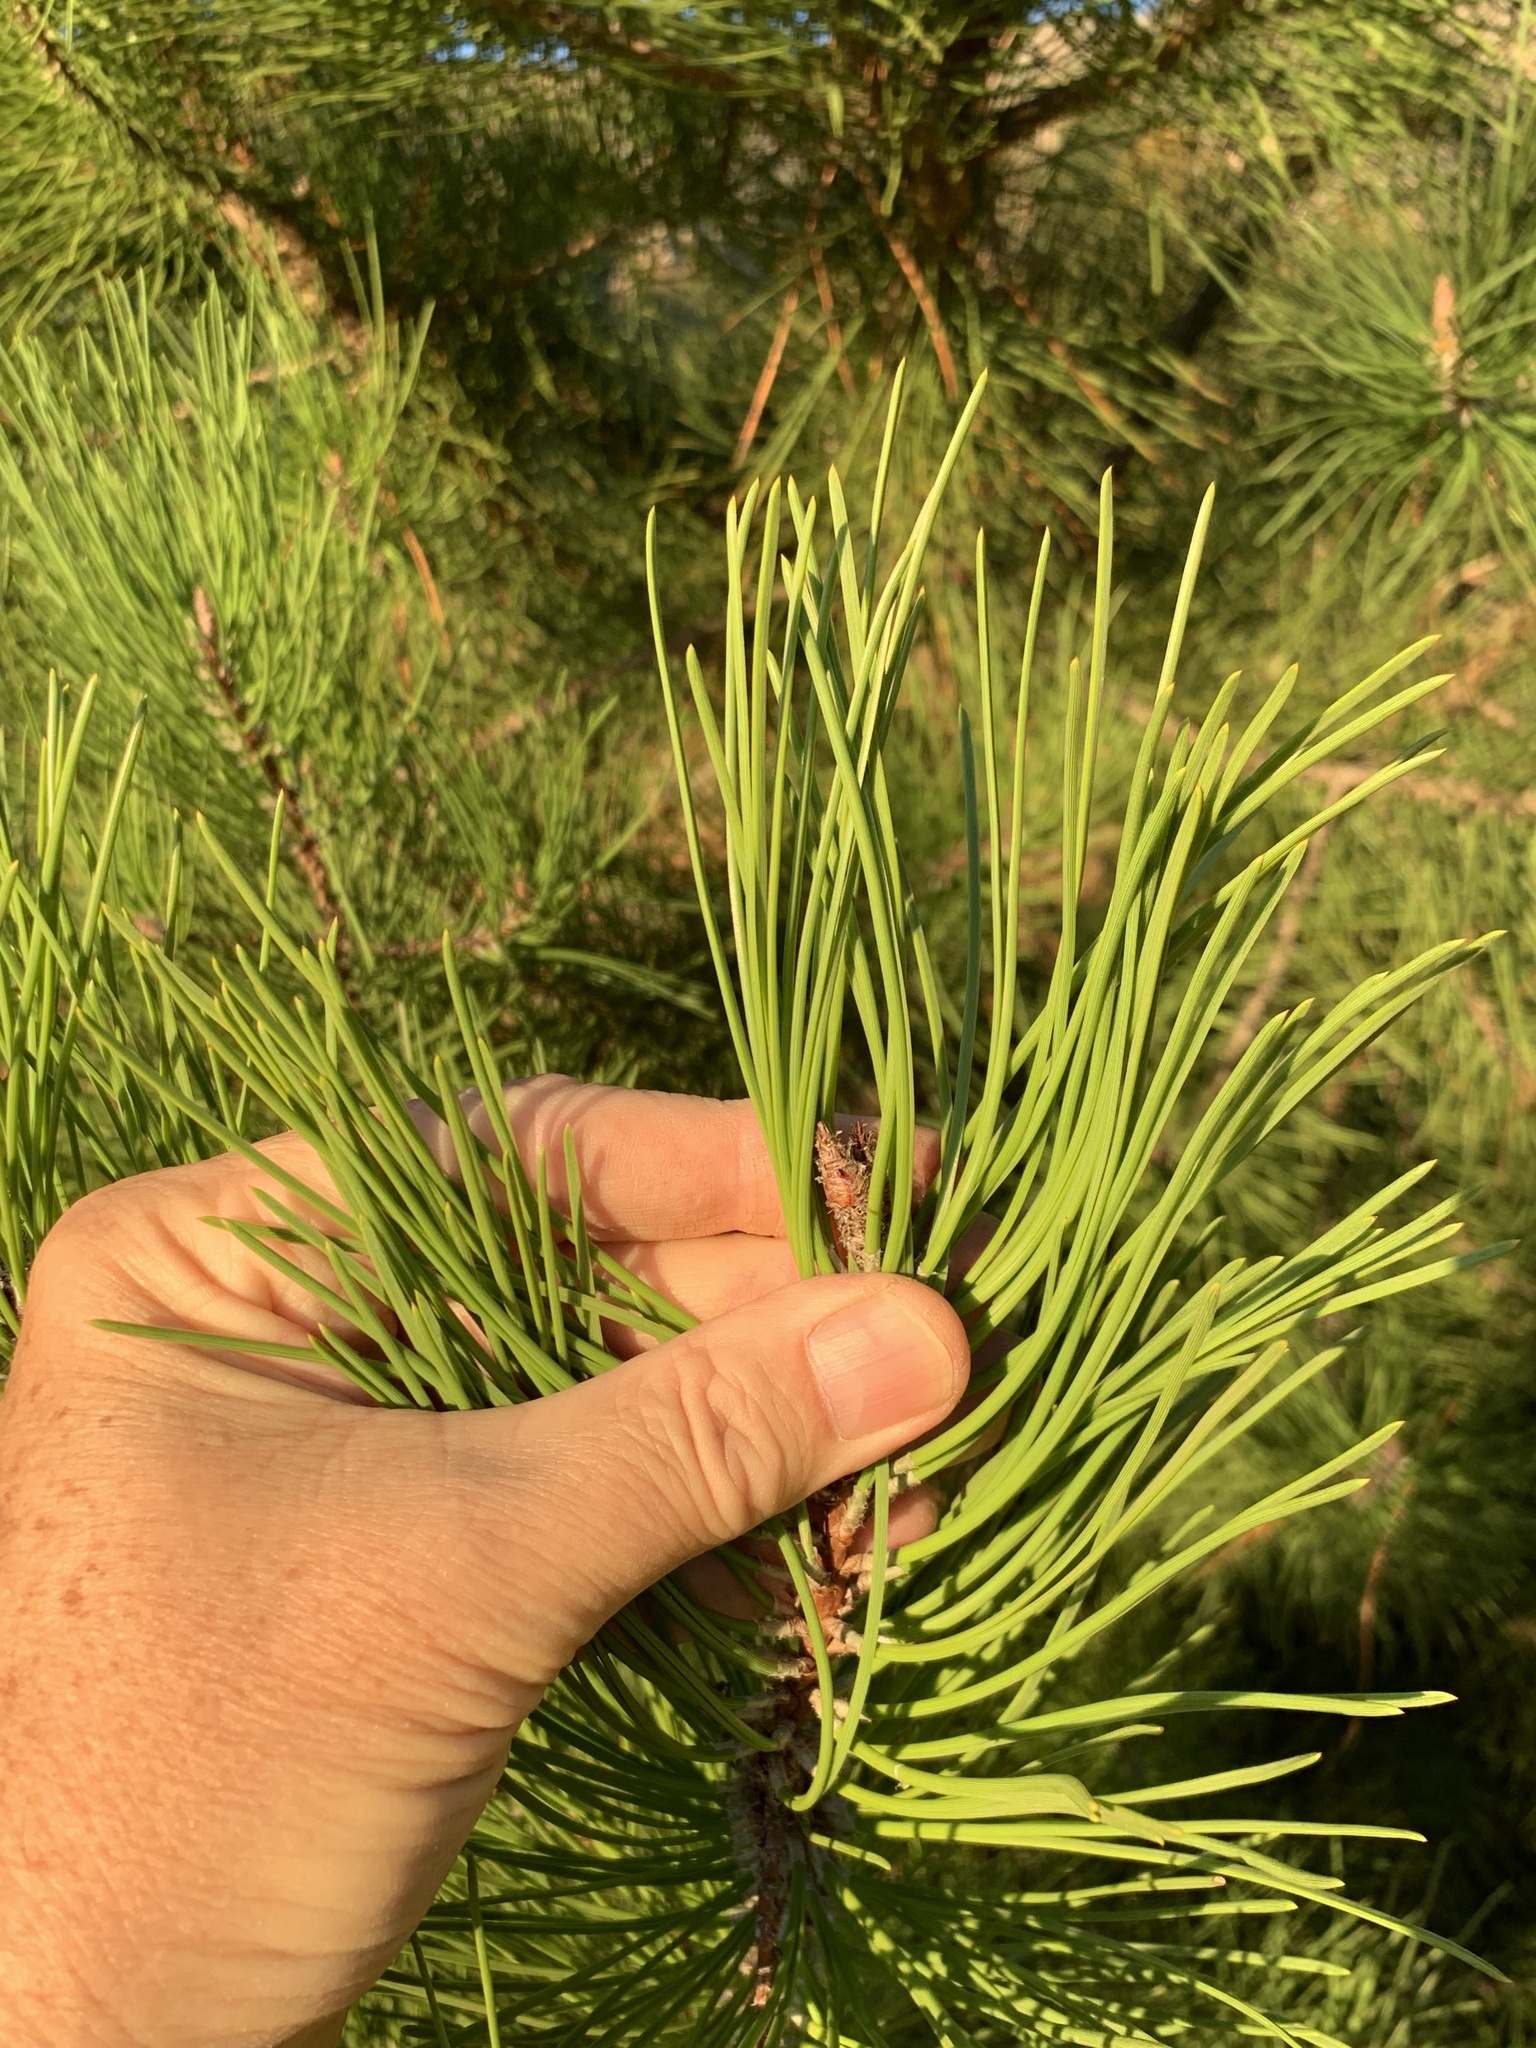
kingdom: Plantae
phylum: Tracheophyta
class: Pinopsida
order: Pinales
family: Pinaceae
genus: Pinus
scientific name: Pinus pinaster
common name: Maritime pine
